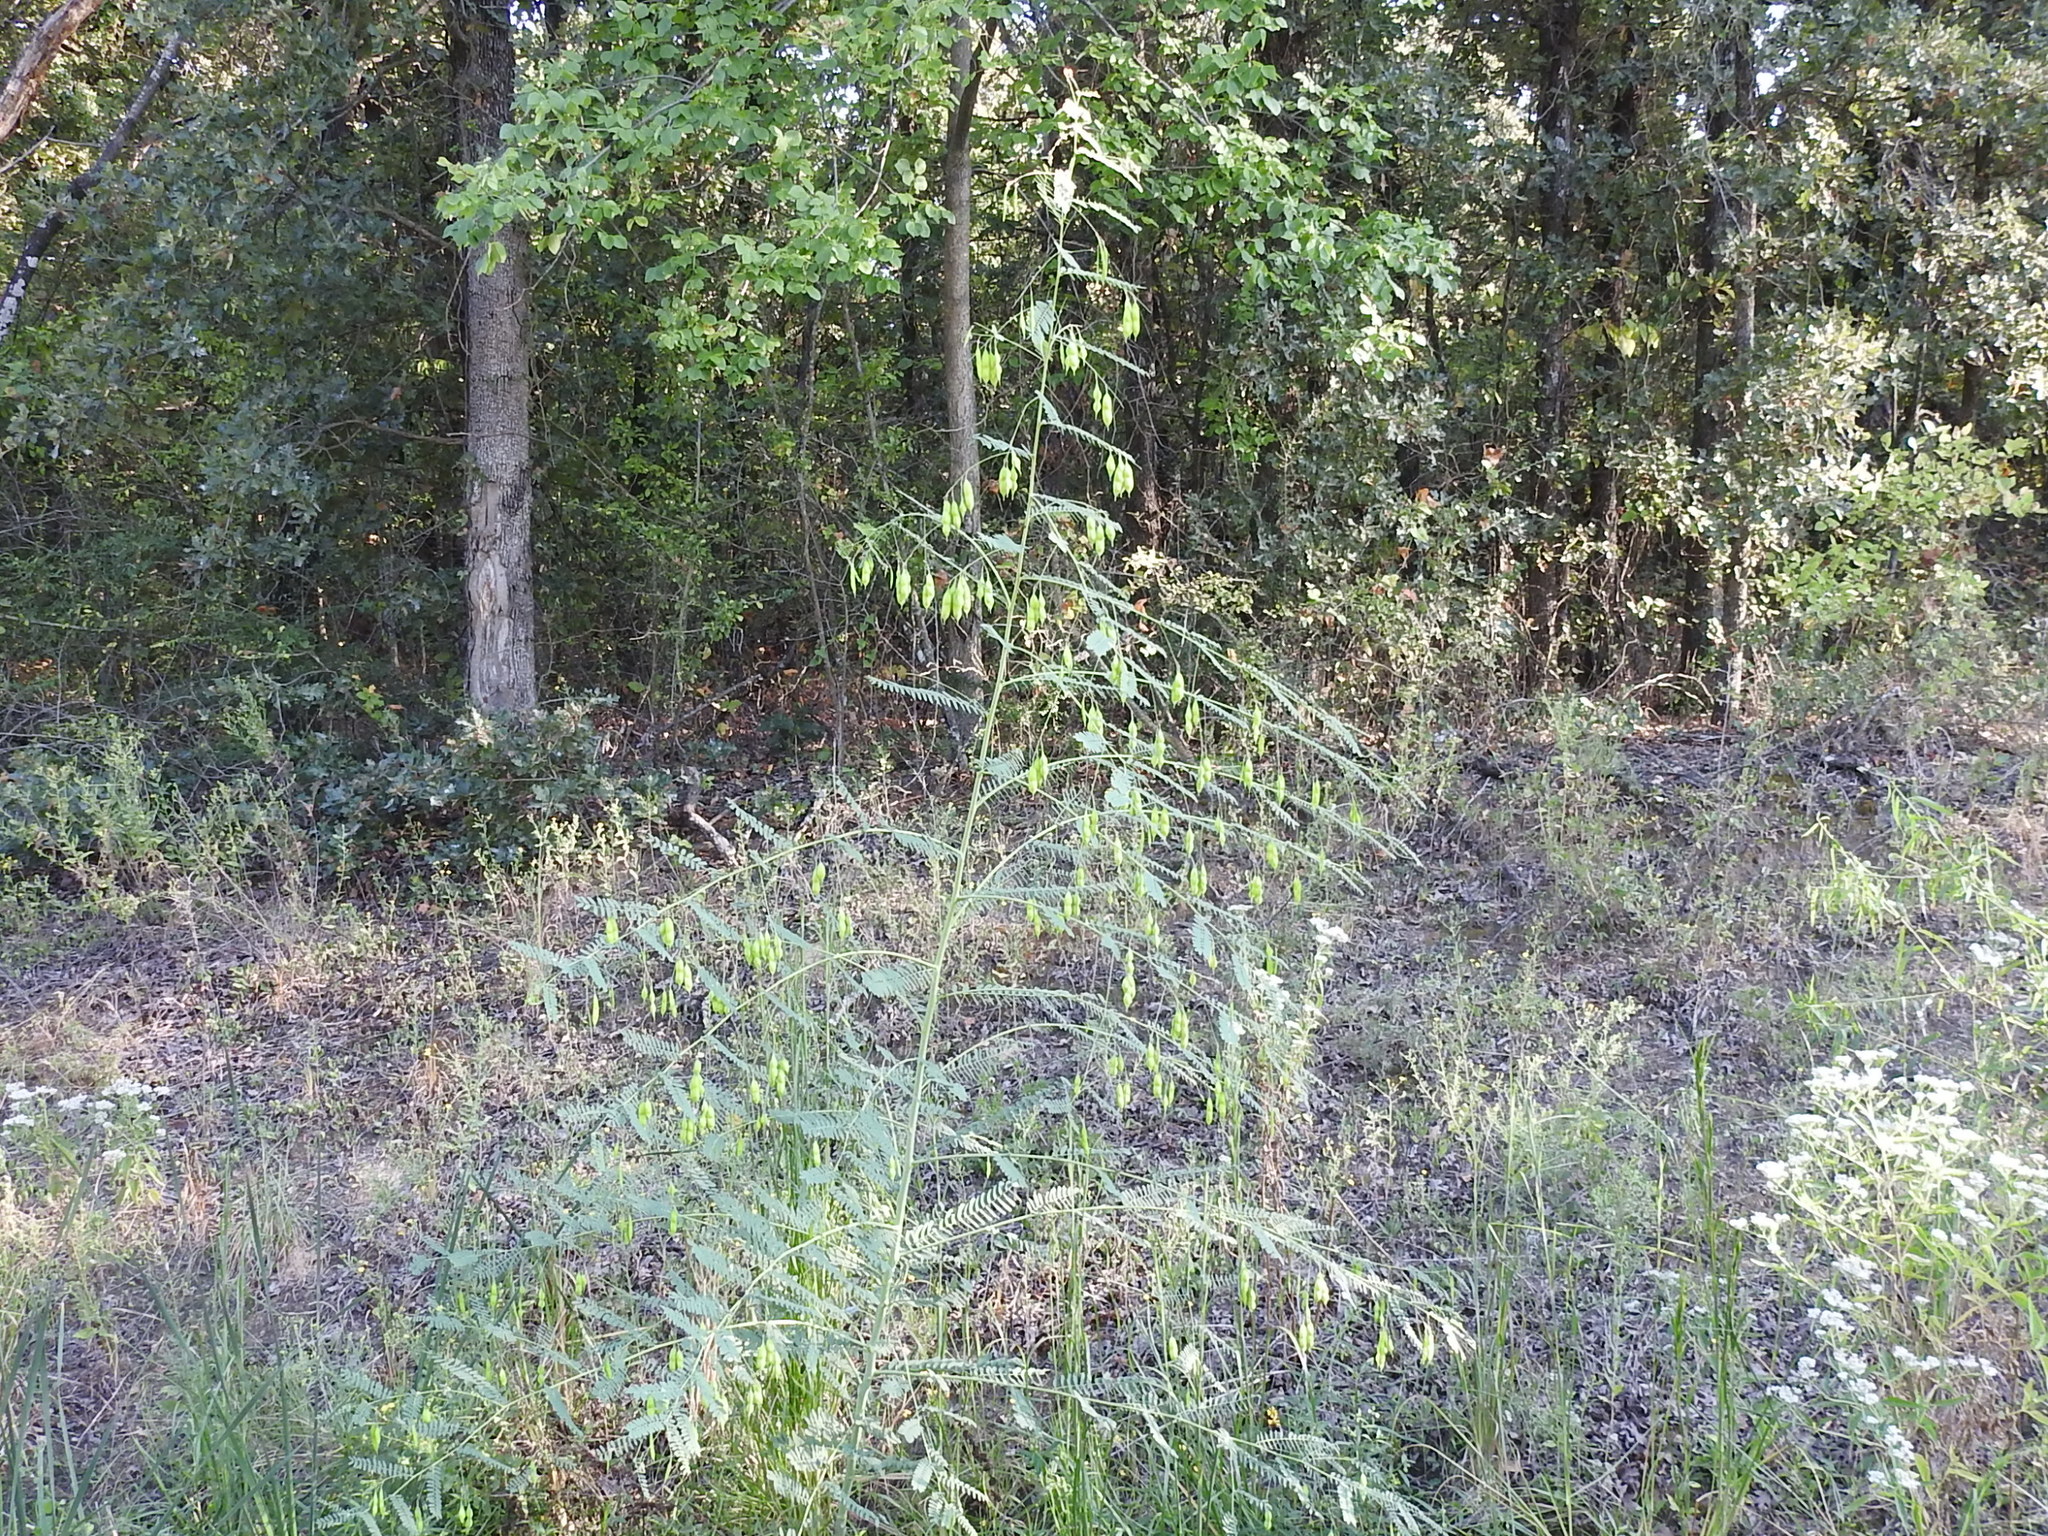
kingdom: Plantae
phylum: Tracheophyta
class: Magnoliopsida
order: Fabales
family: Fabaceae
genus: Sesbania
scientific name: Sesbania vesicaria
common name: Bagpod
